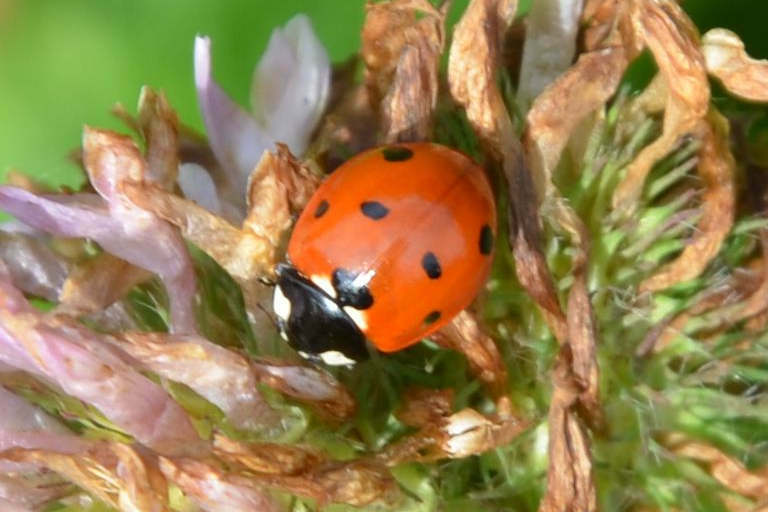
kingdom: Animalia
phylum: Arthropoda
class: Insecta
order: Coleoptera
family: Coccinellidae
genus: Coccinella
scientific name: Coccinella septempunctata
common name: Sevenspotted lady beetle
